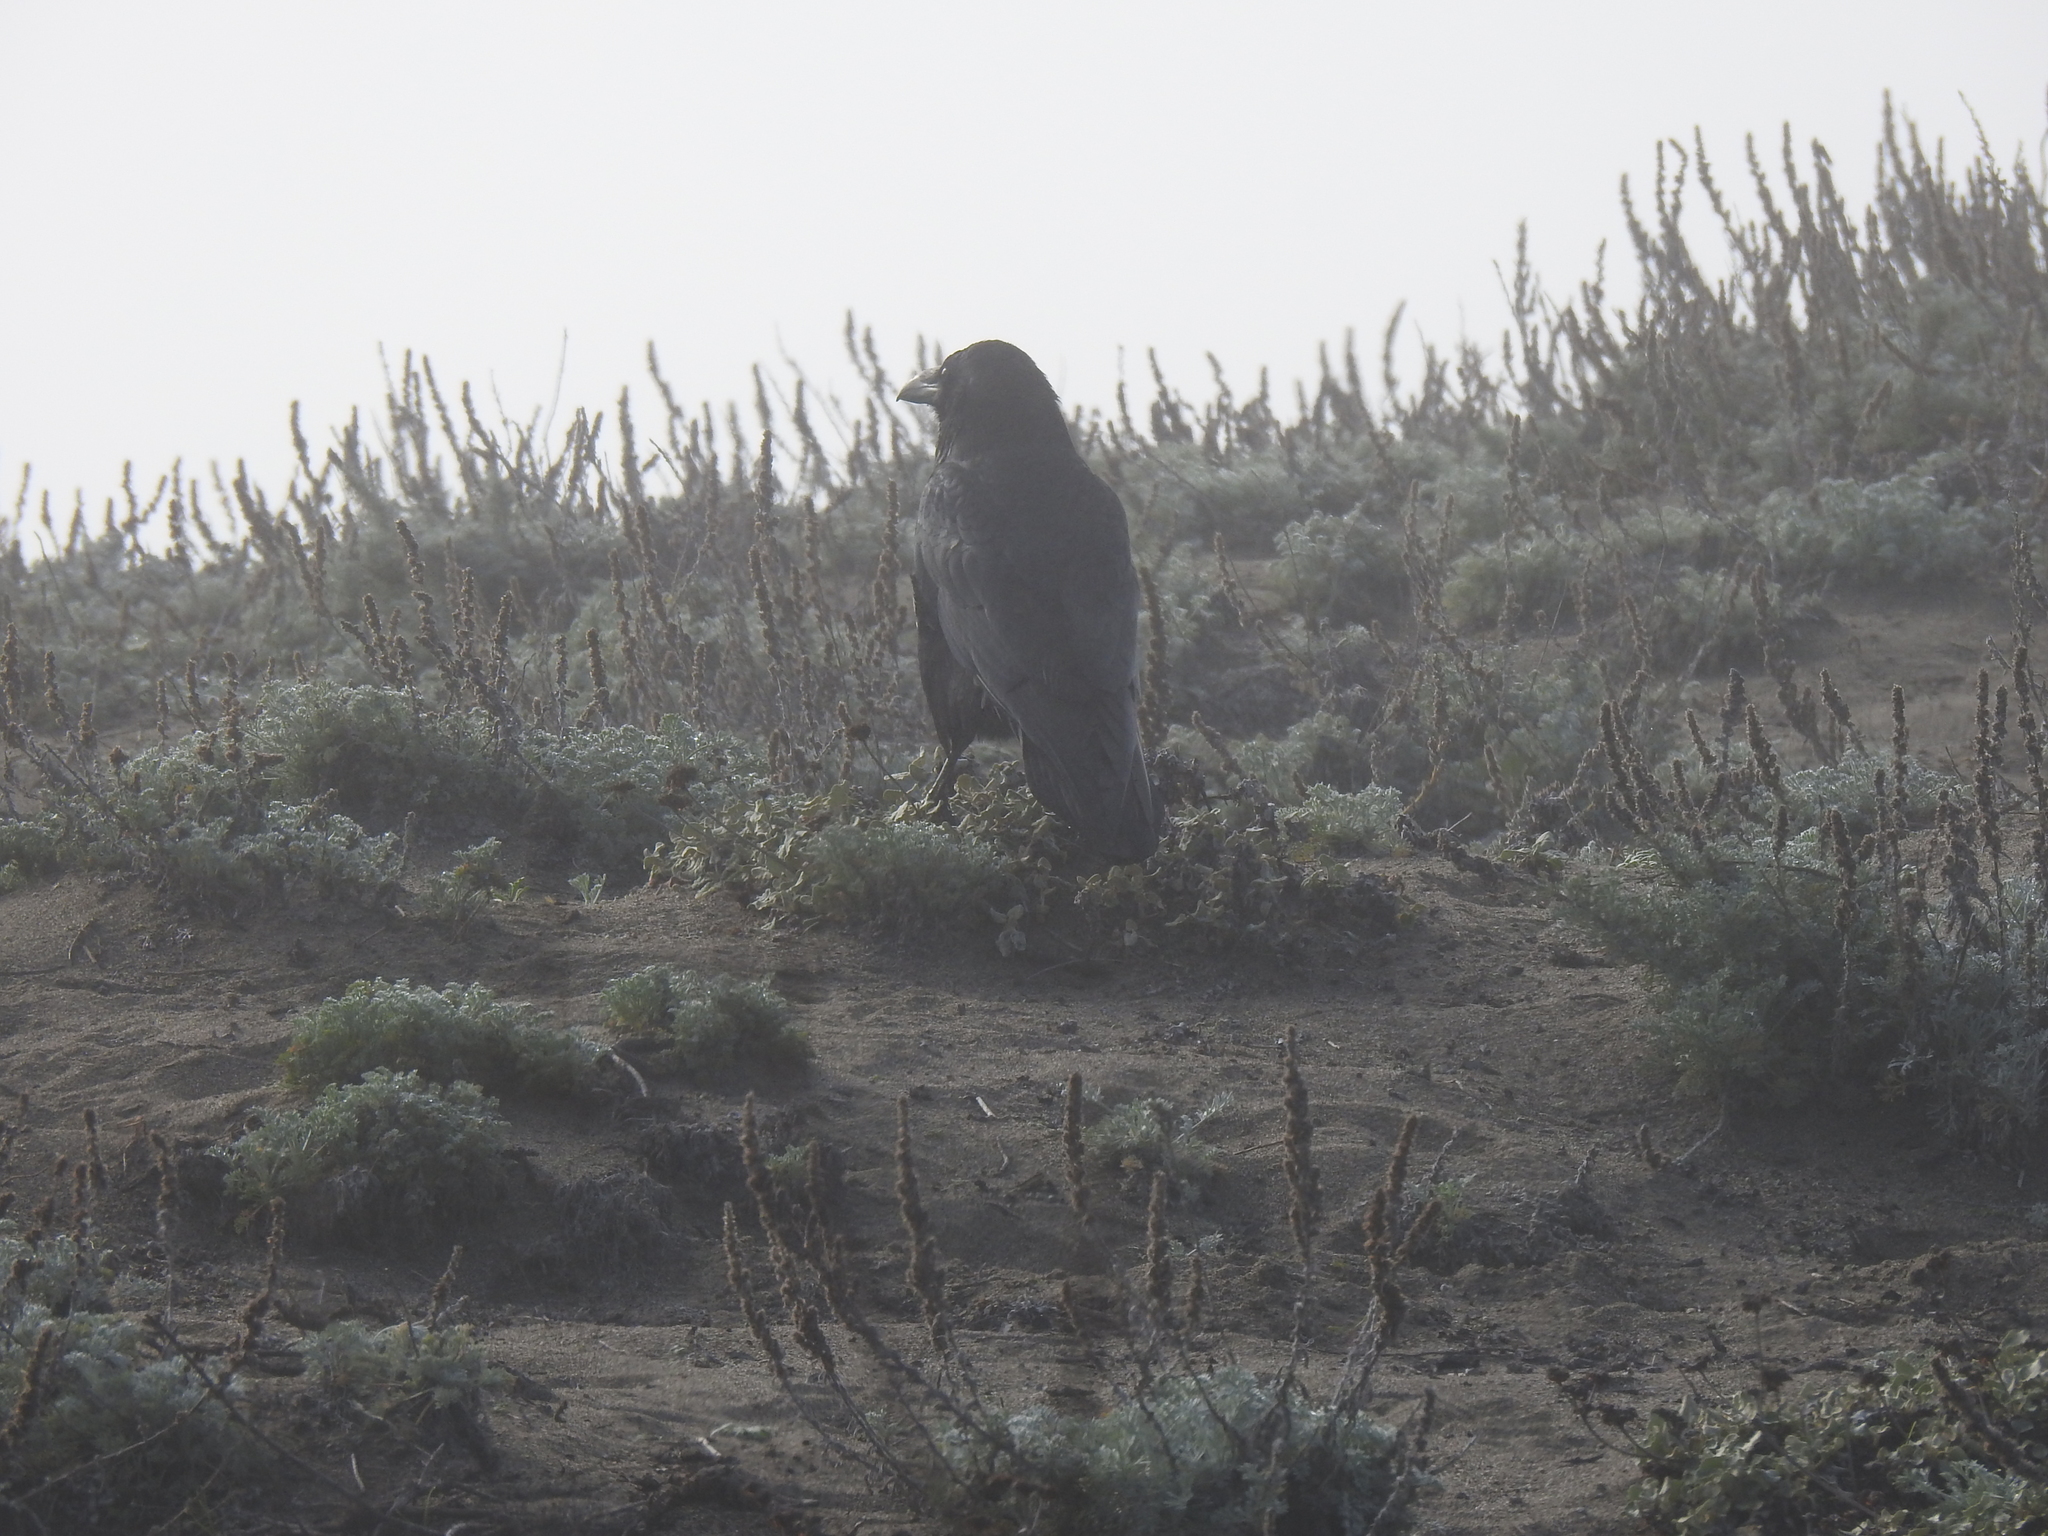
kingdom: Animalia
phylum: Chordata
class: Aves
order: Passeriformes
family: Corvidae
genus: Corvus
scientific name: Corvus corax
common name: Common raven
